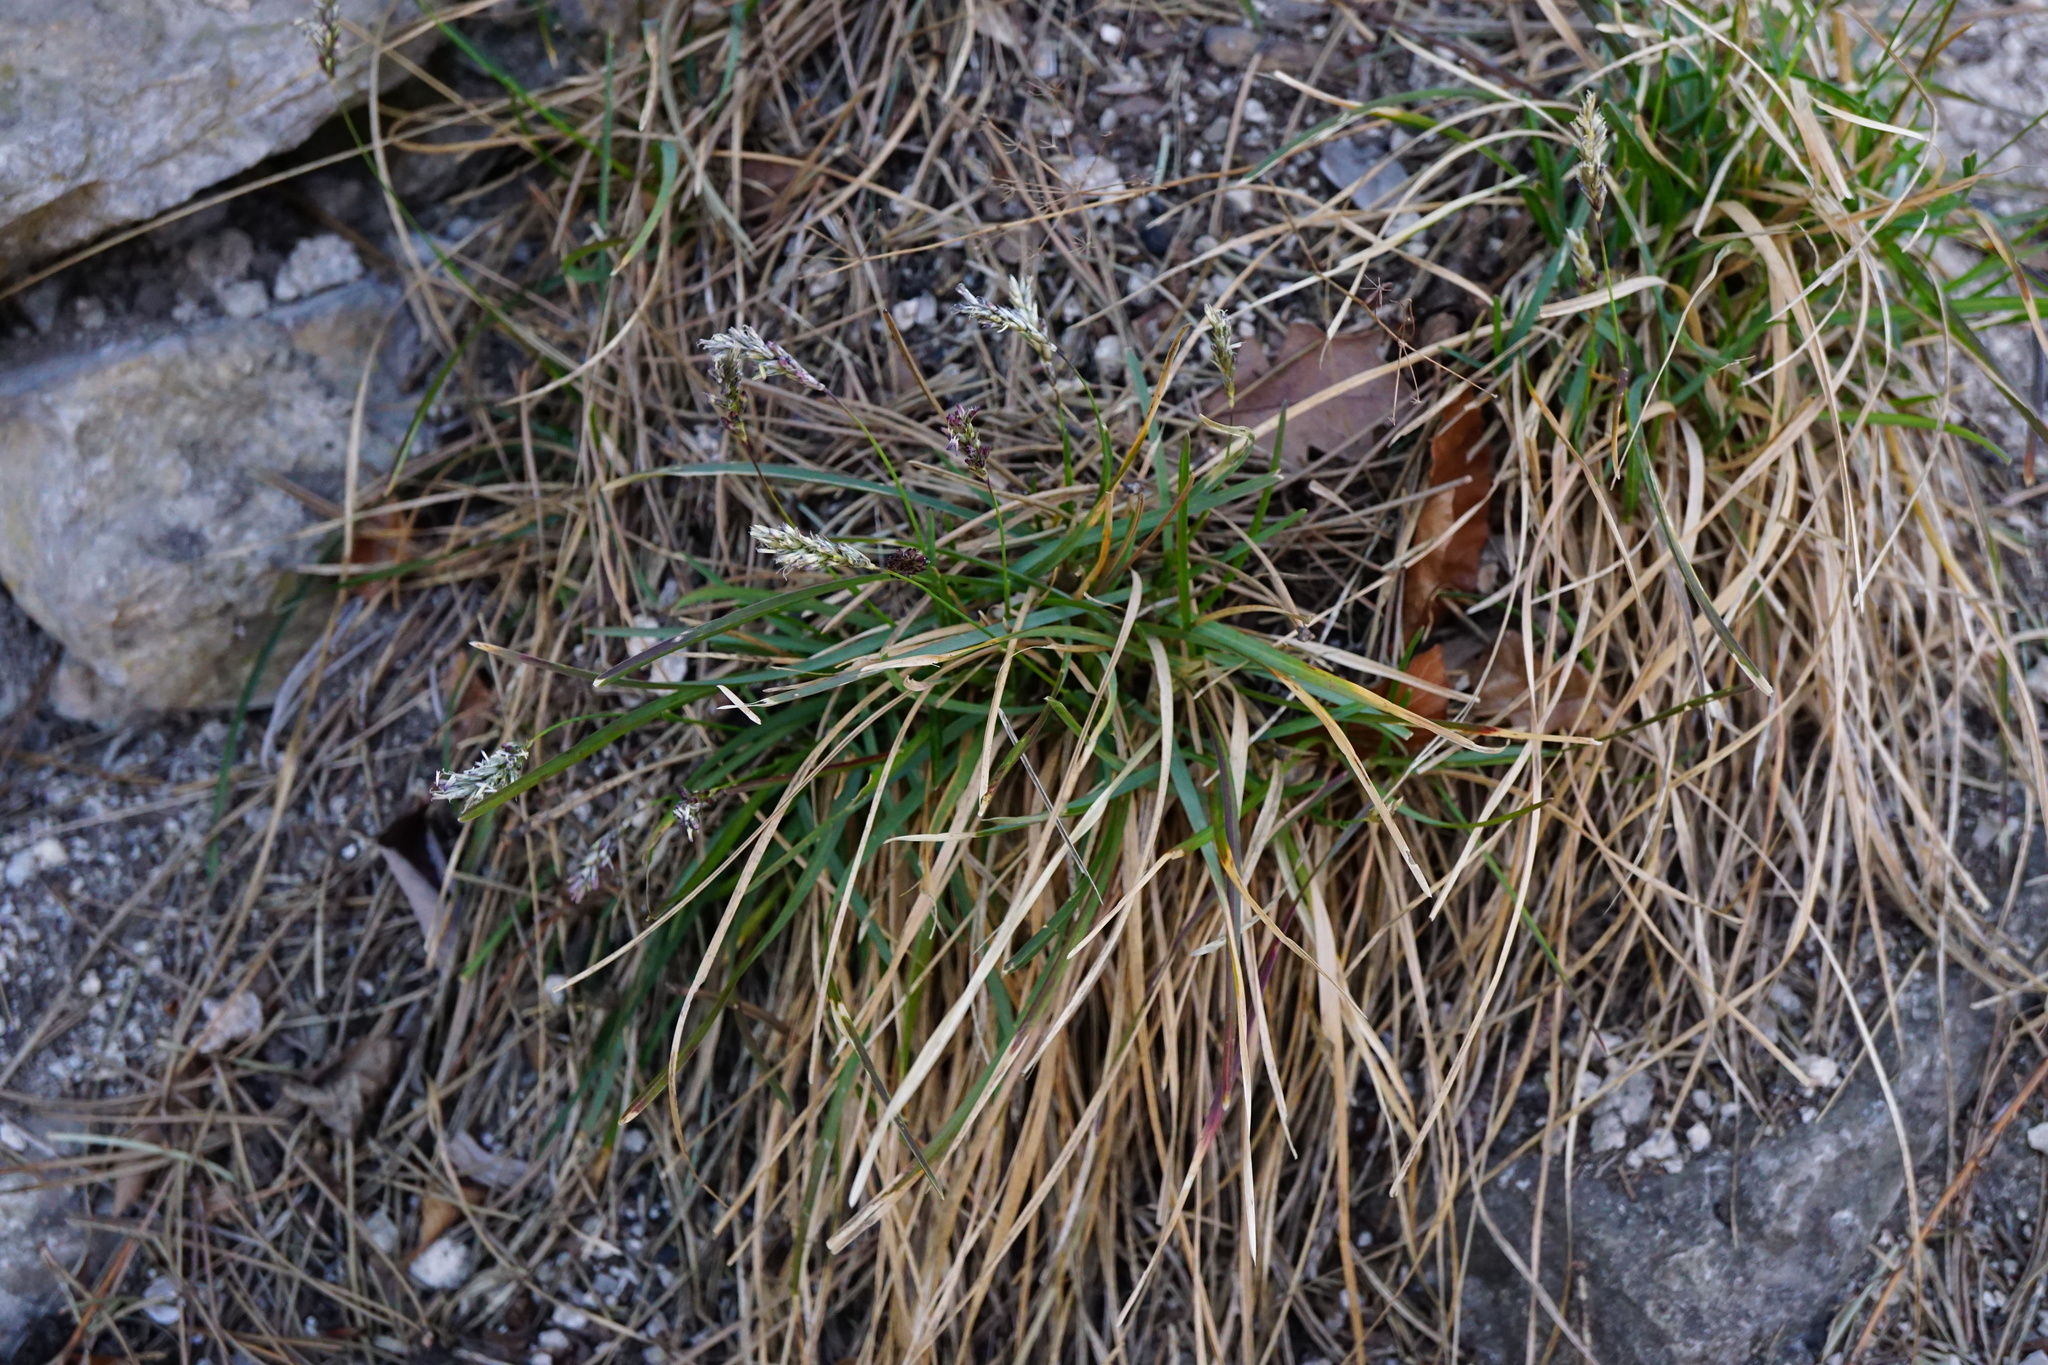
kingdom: Plantae
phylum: Tracheophyta
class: Liliopsida
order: Poales
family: Poaceae
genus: Sesleria
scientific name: Sesleria caerulea
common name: Blue moor-grass
